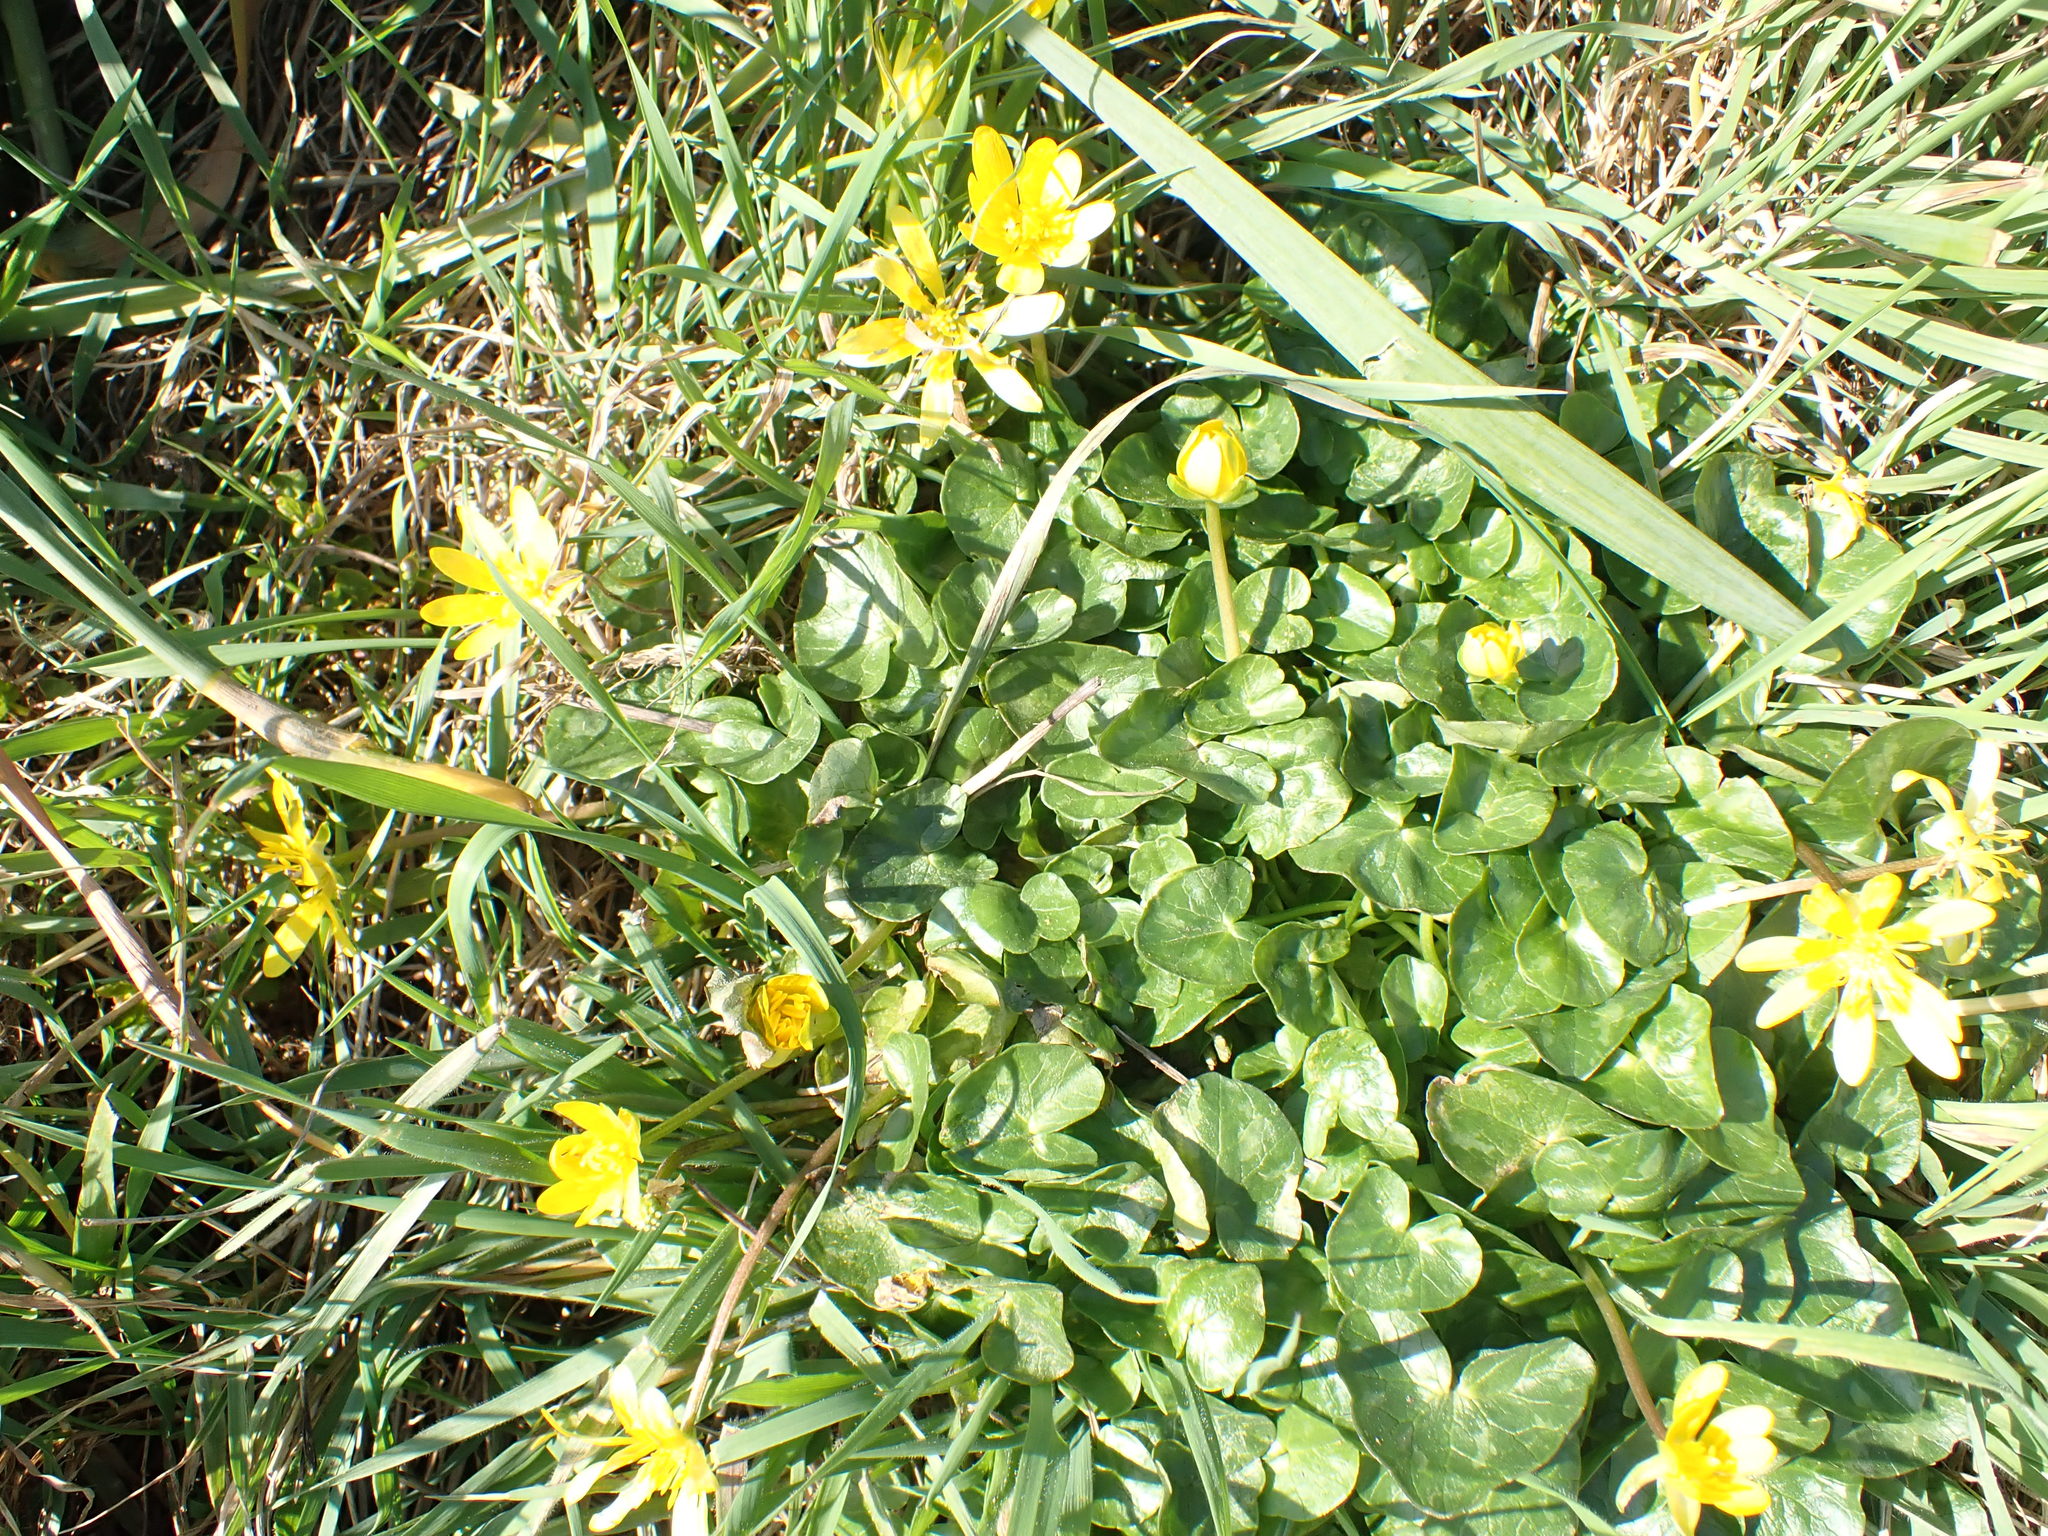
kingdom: Plantae
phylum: Tracheophyta
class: Magnoliopsida
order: Ranunculales
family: Ranunculaceae
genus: Ficaria
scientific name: Ficaria verna
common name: Lesser celandine
